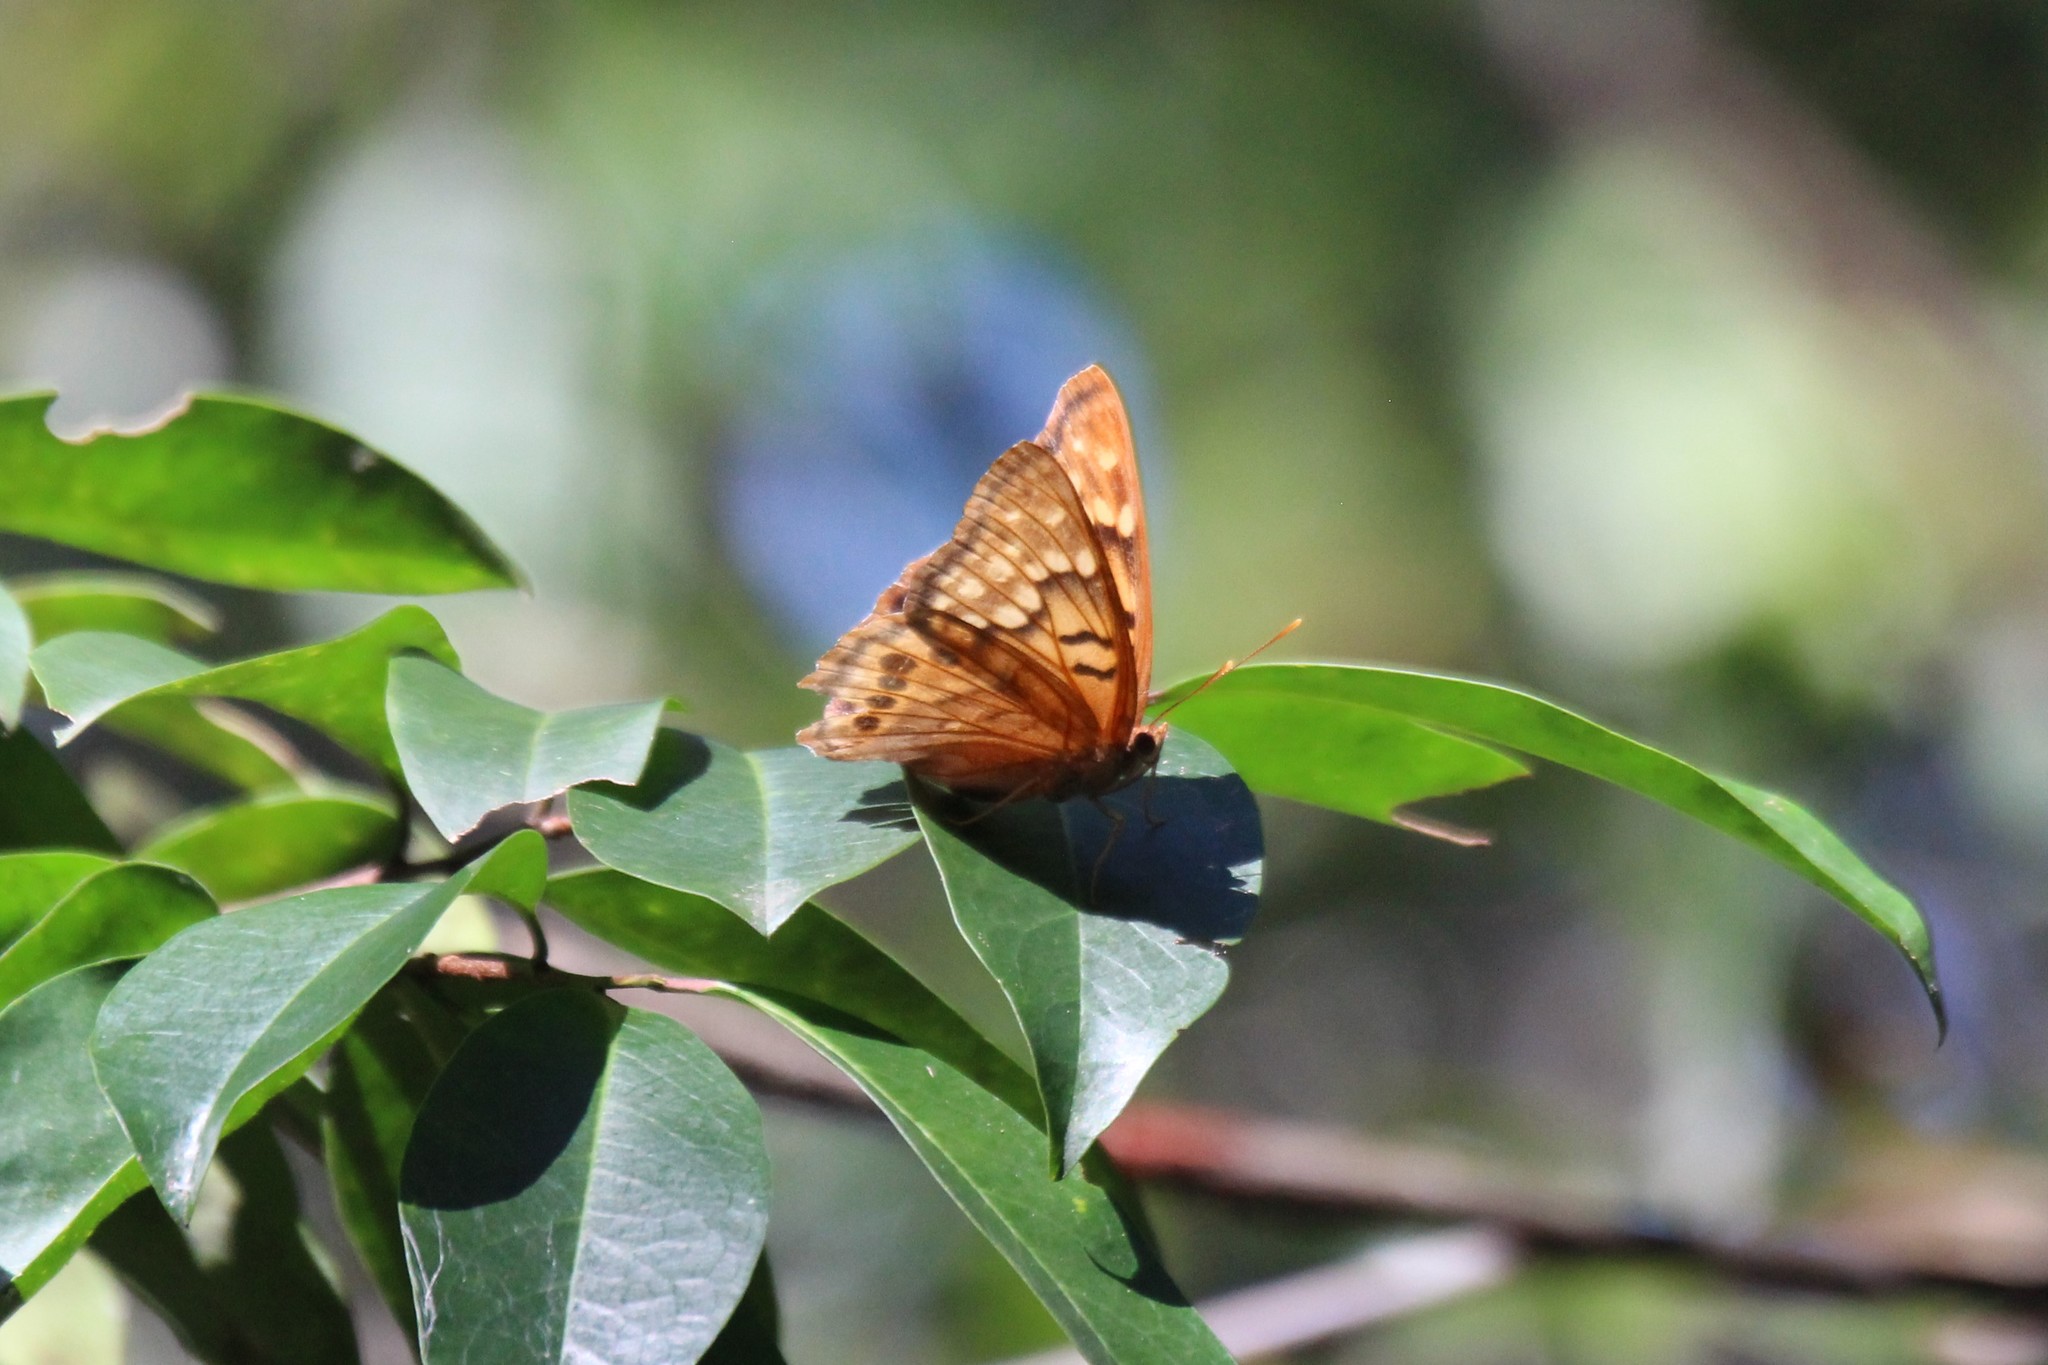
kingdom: Animalia
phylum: Arthropoda
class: Insecta
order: Lepidoptera
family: Nymphalidae
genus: Asterocampa
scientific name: Asterocampa clyton
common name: Tawny emperor
